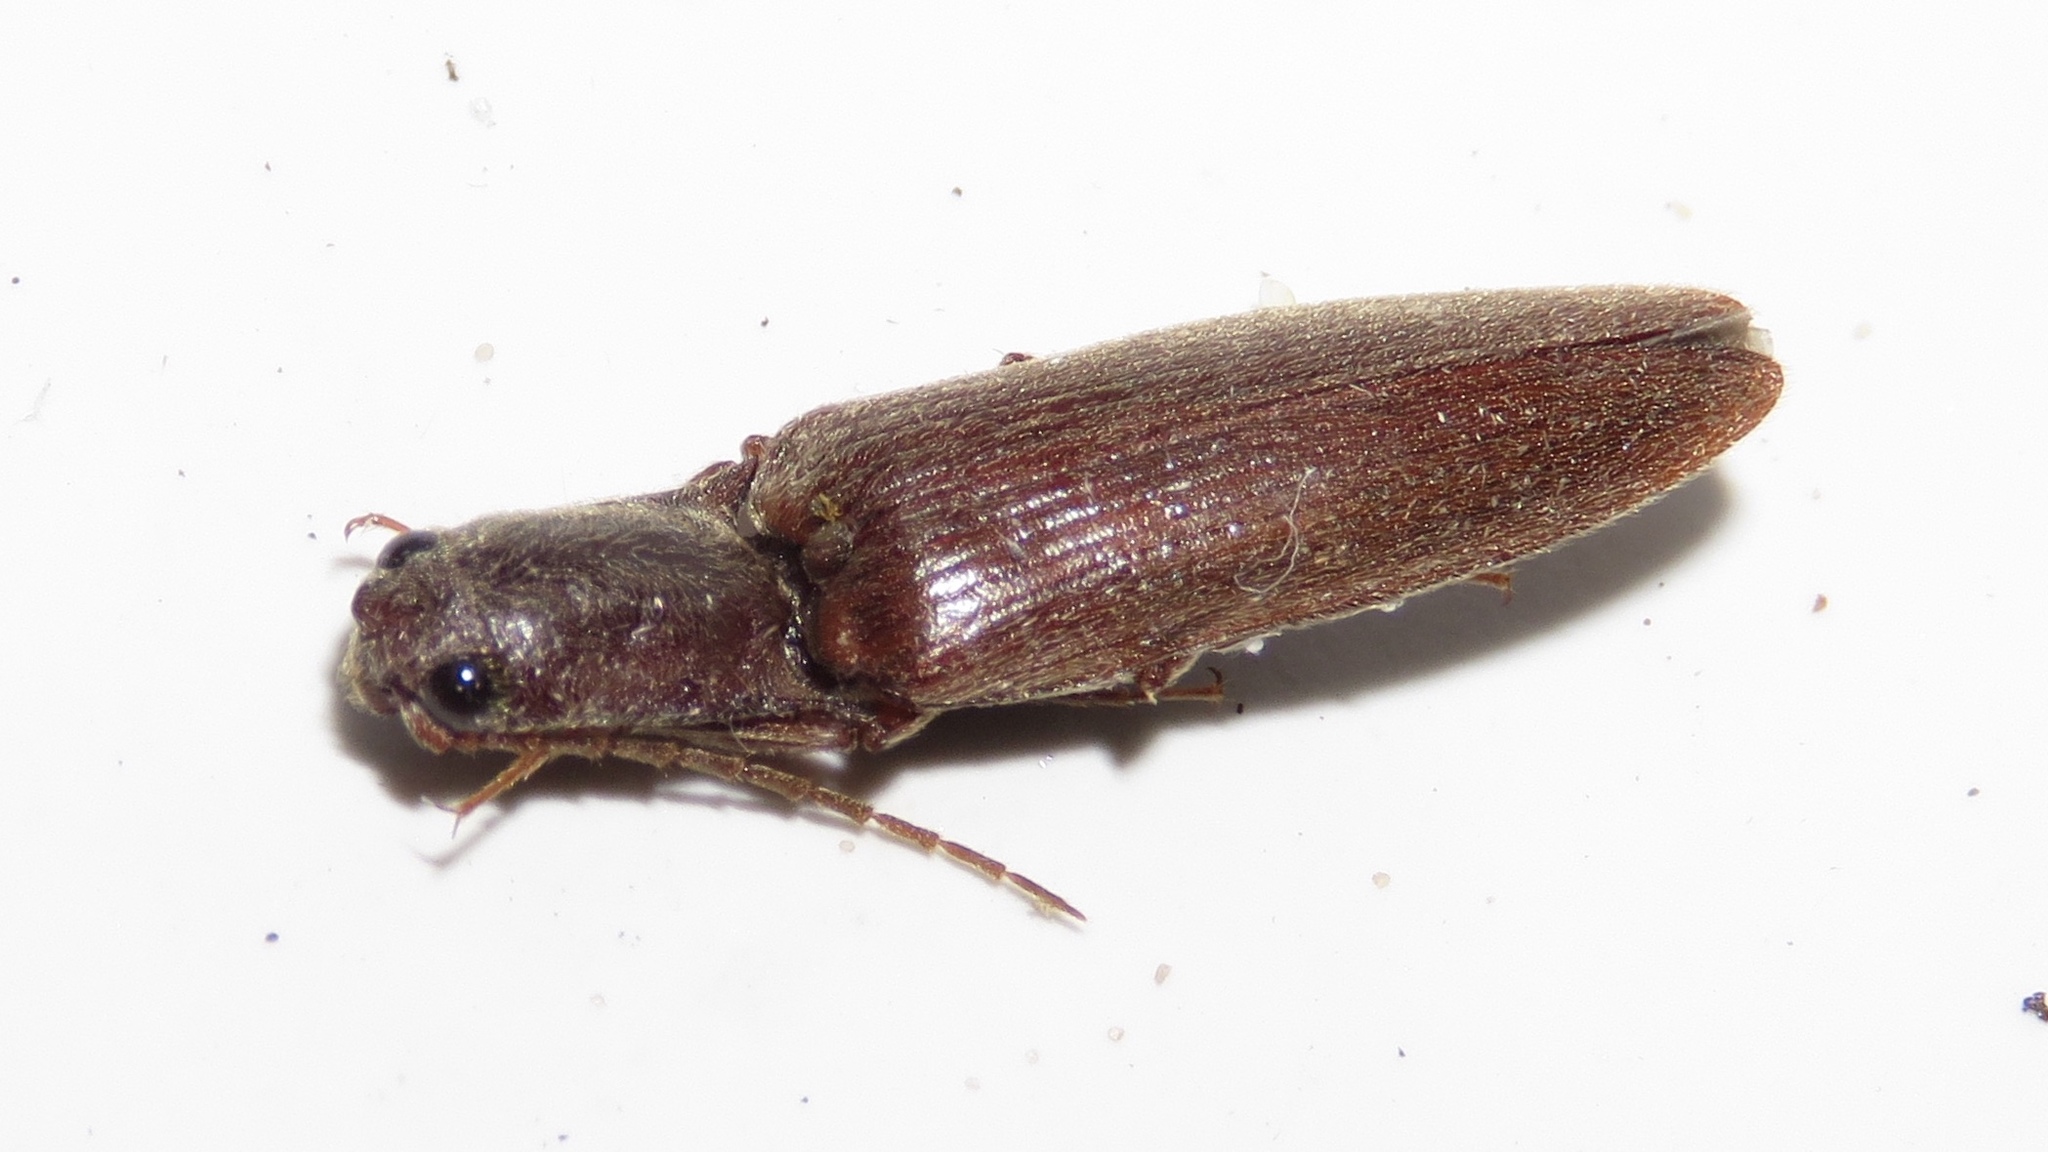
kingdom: Animalia
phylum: Arthropoda
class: Insecta
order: Coleoptera
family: Elateridae
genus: Proludius
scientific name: Proludius pyrros
